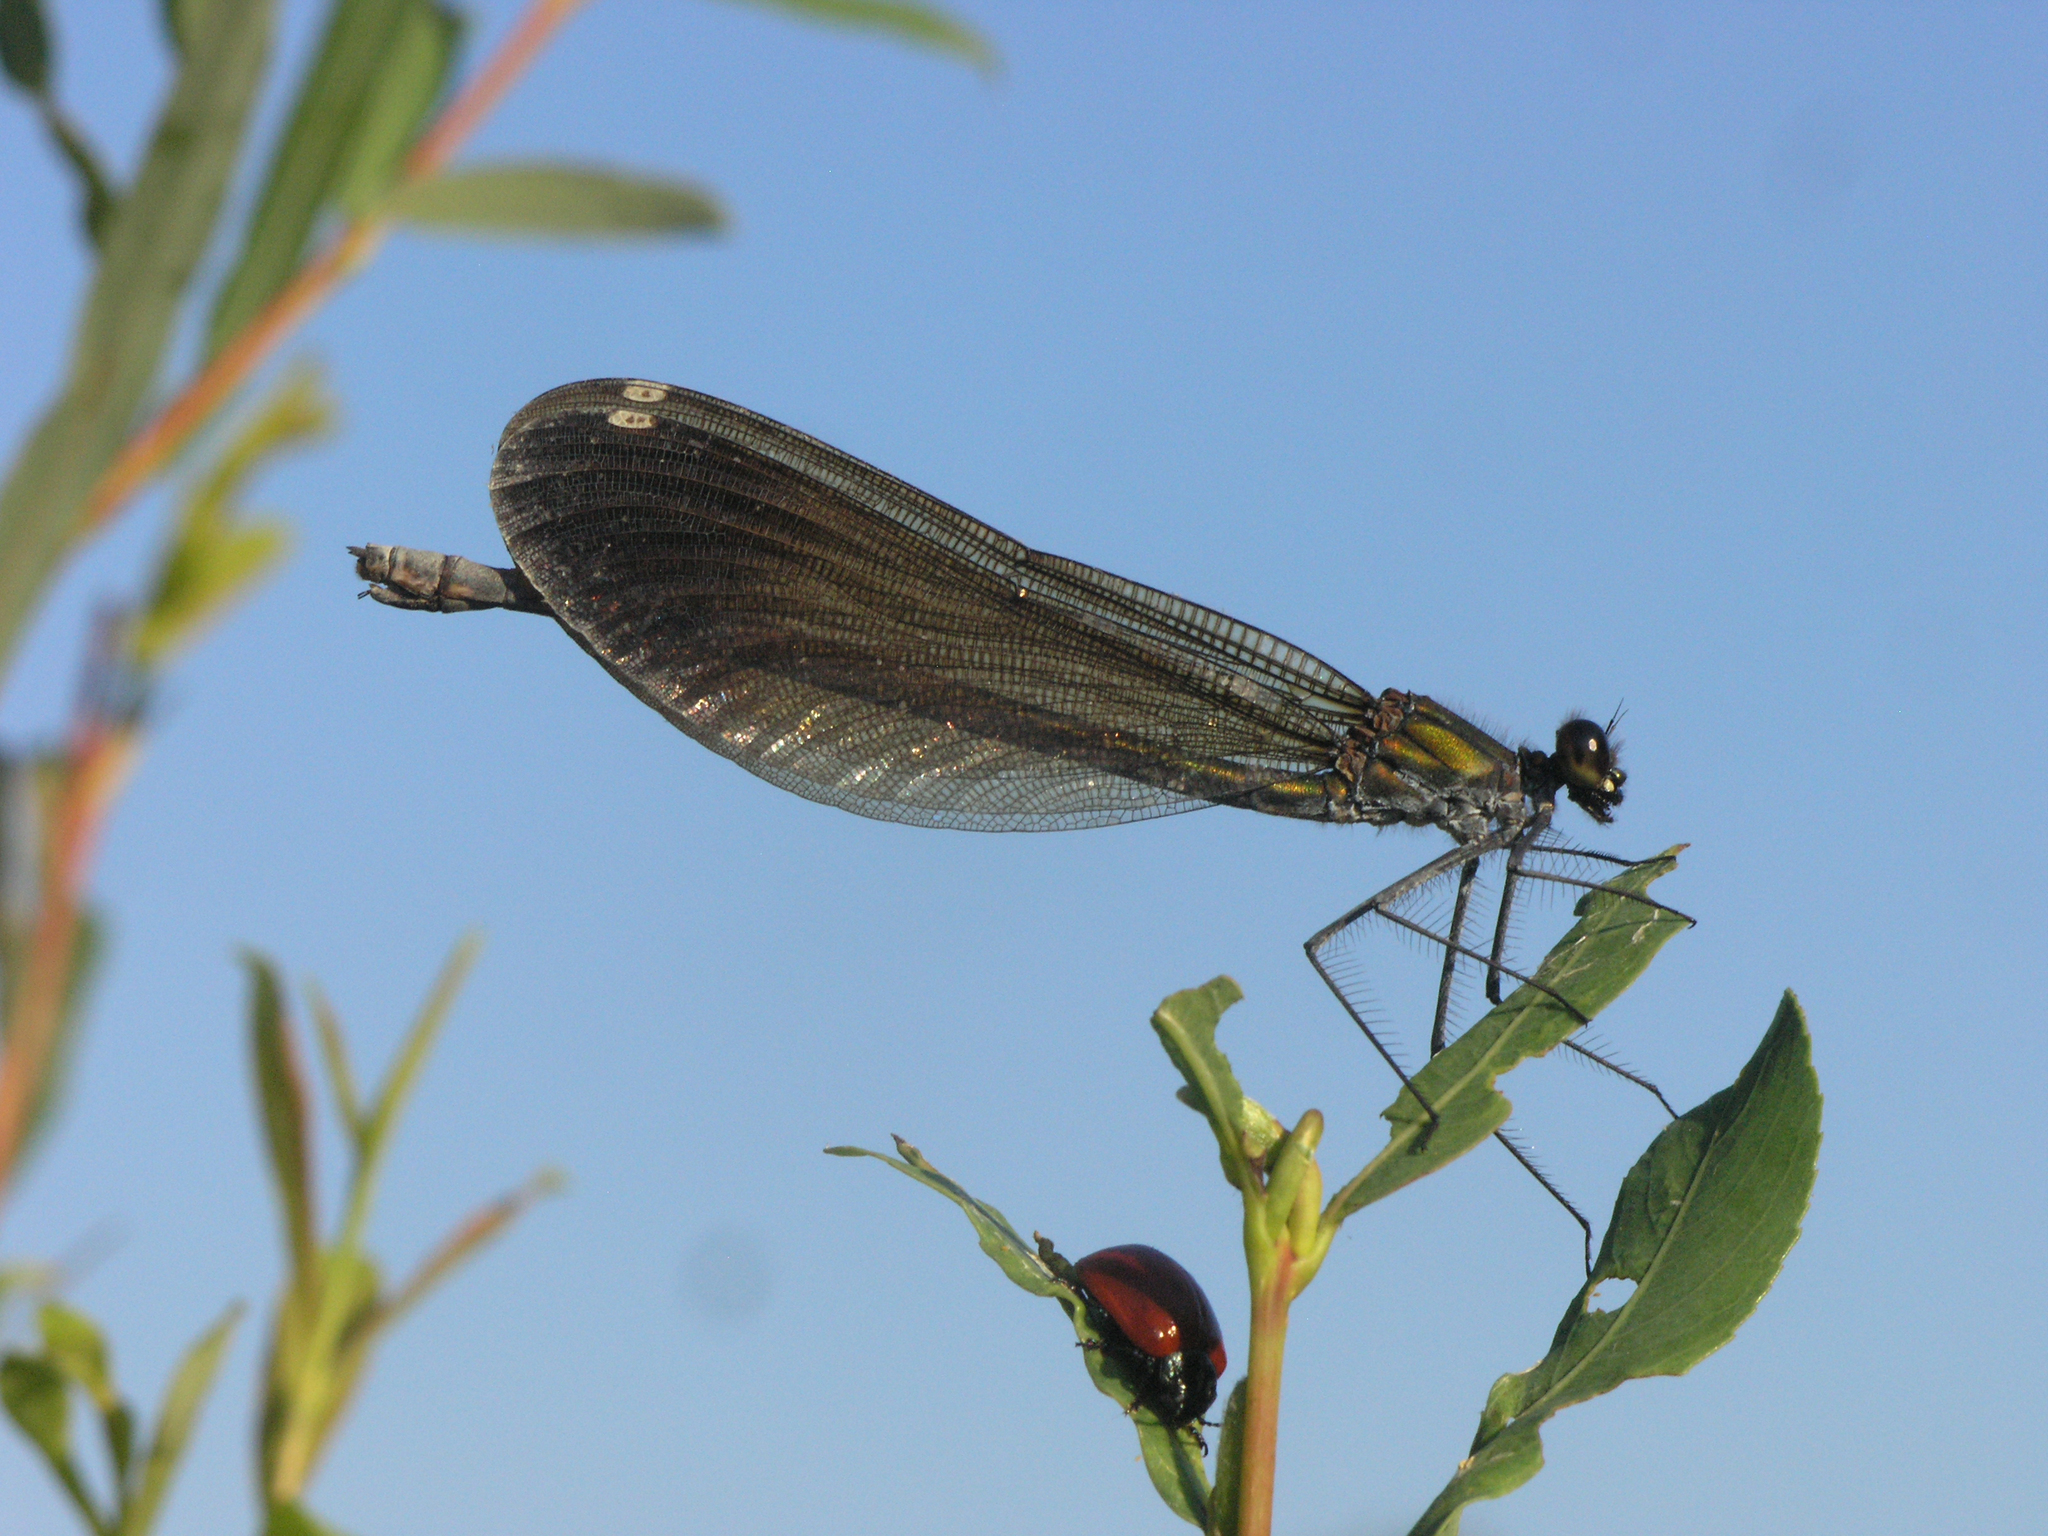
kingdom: Animalia
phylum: Arthropoda
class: Insecta
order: Odonata
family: Calopterygidae
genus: Calopteryx
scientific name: Calopteryx virgo
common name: Beautiful demoiselle
